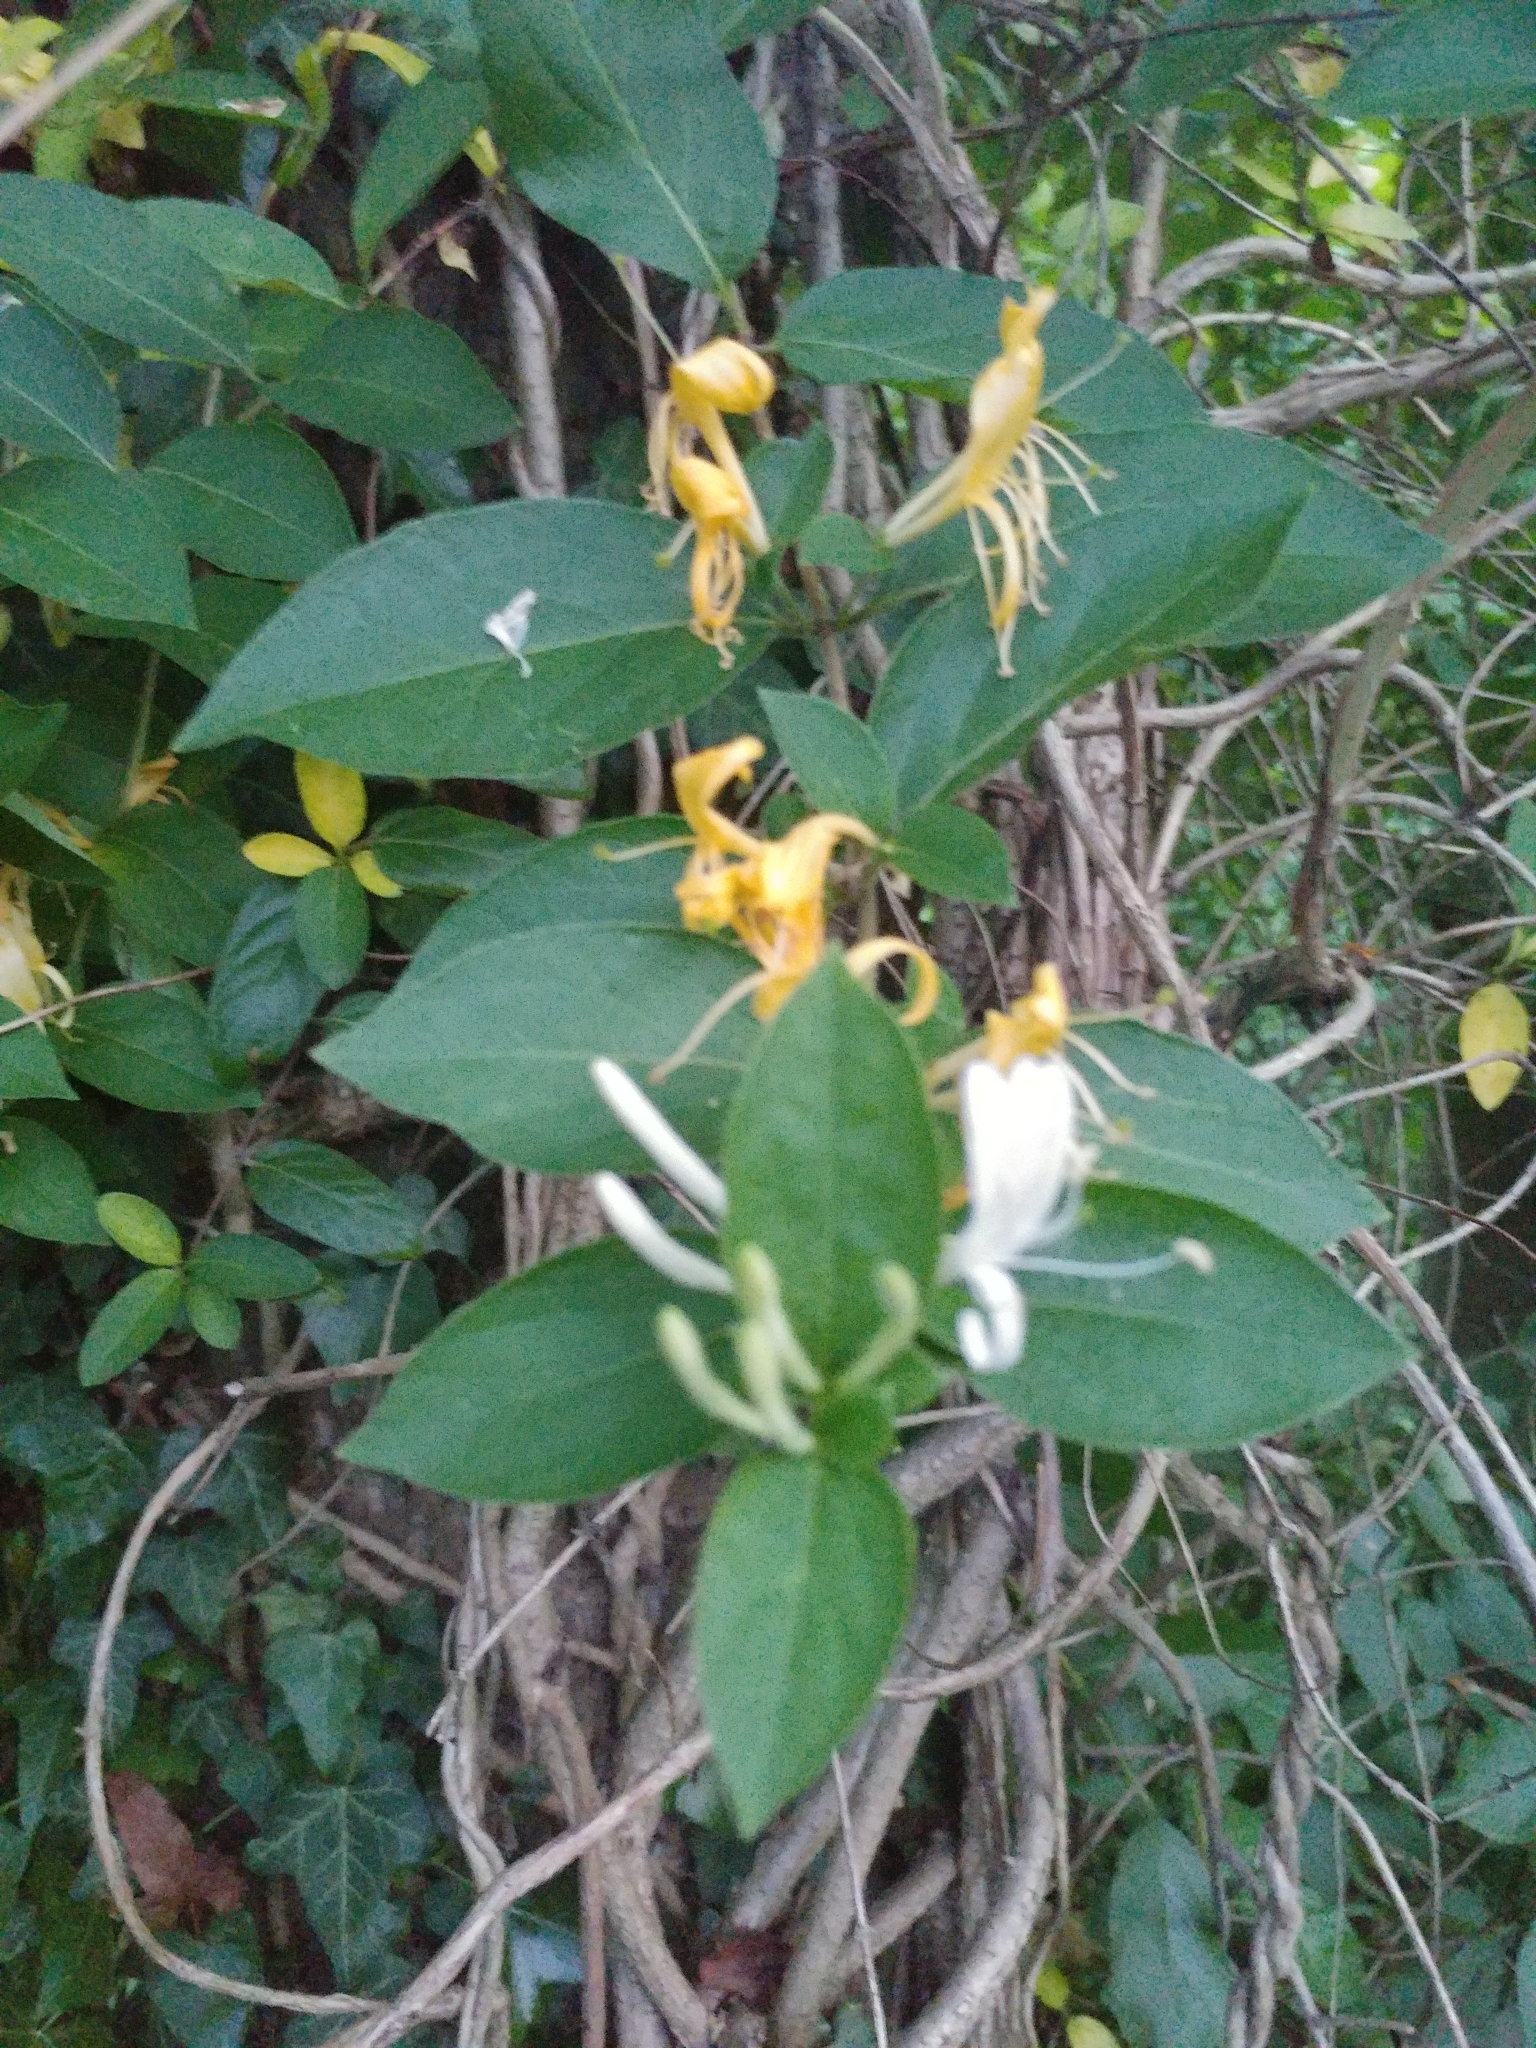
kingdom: Plantae
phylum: Tracheophyta
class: Magnoliopsida
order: Dipsacales
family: Caprifoliaceae
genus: Lonicera
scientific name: Lonicera japonica
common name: Japanese honeysuckle
